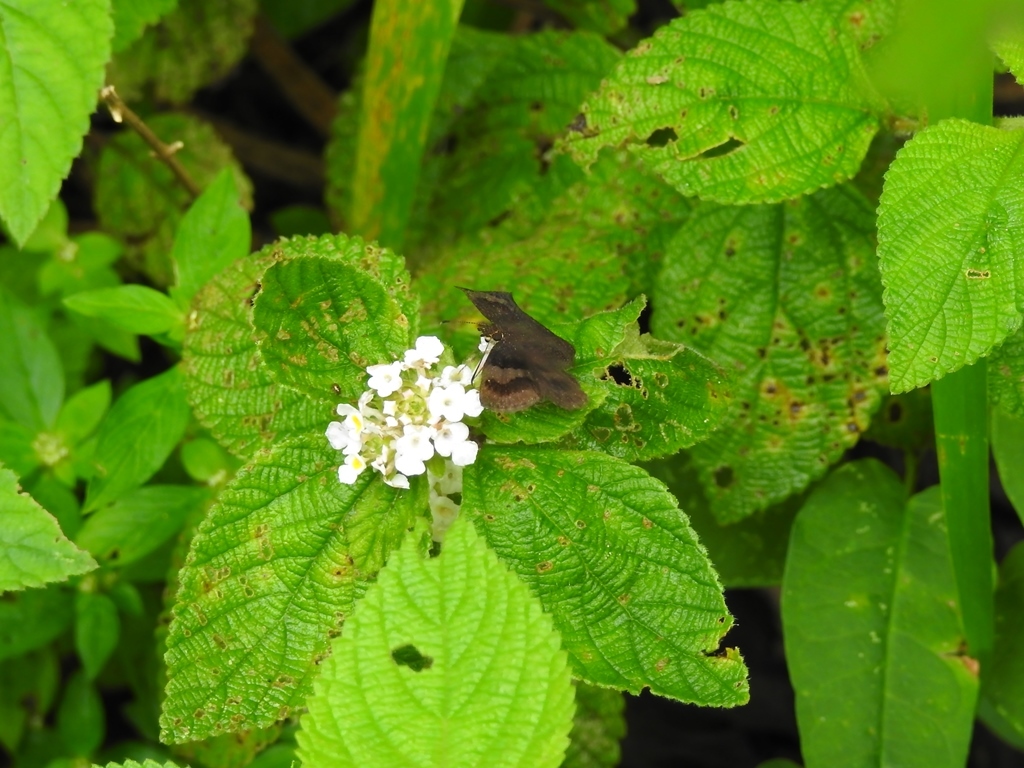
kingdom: Plantae
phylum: Tracheophyta
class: Magnoliopsida
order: Lamiales
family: Verbenaceae
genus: Lantana
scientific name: Lantana involucrata
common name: Black sage
